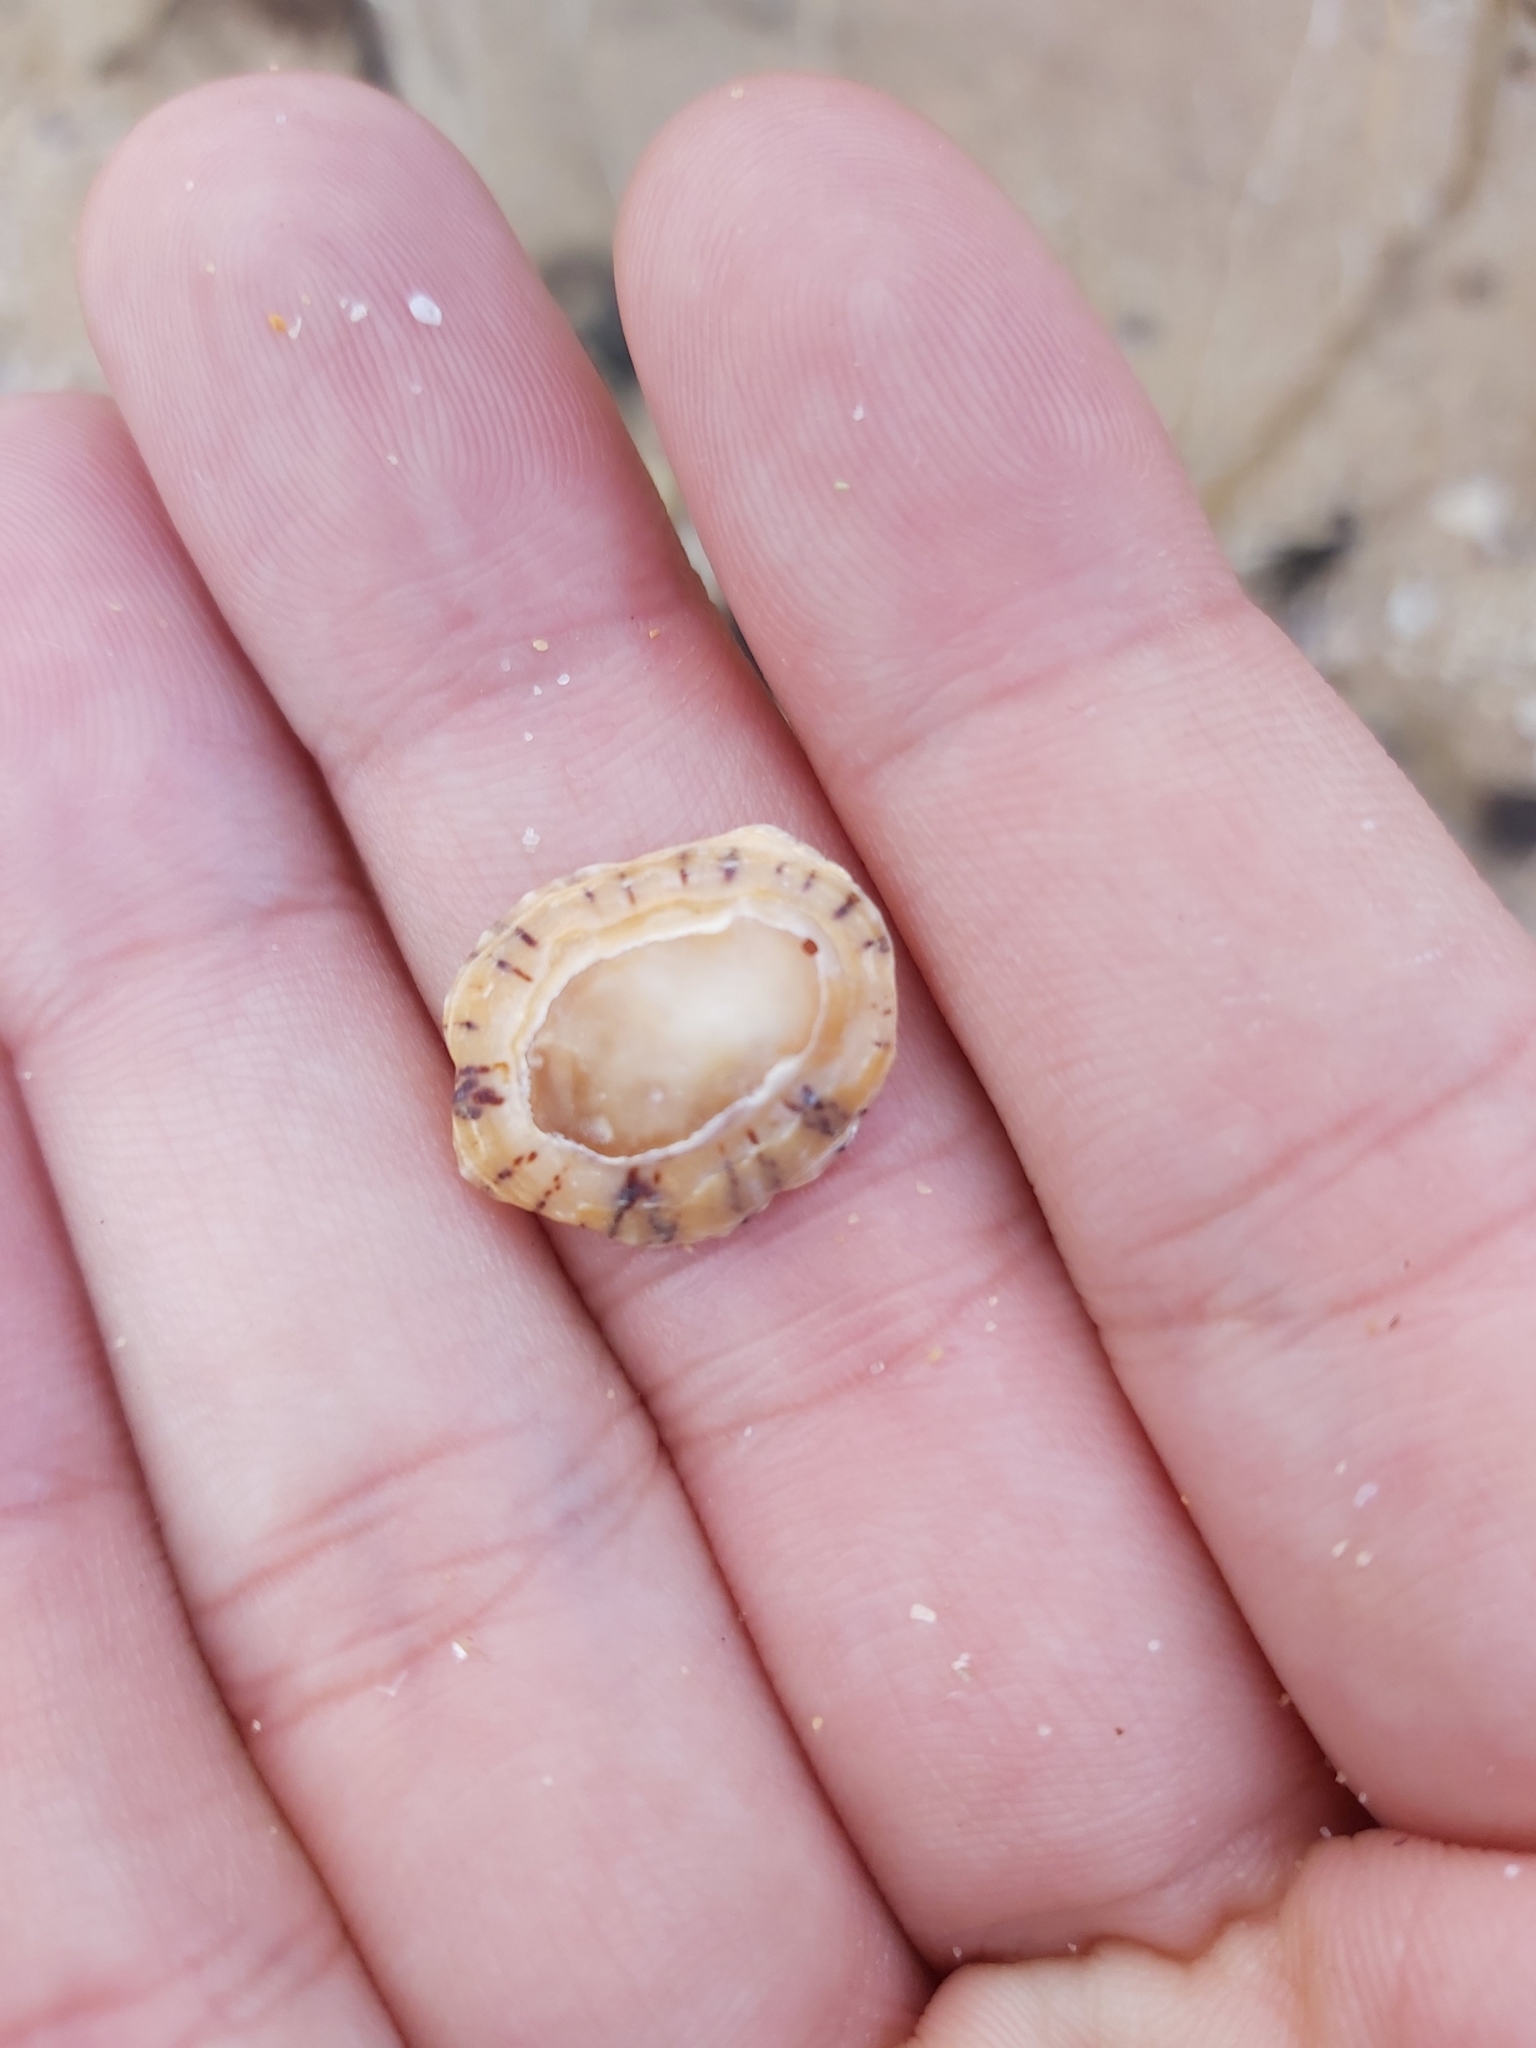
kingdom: Animalia
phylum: Mollusca
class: Gastropoda
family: Nacellidae
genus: Cellana
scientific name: Cellana tramoserica
